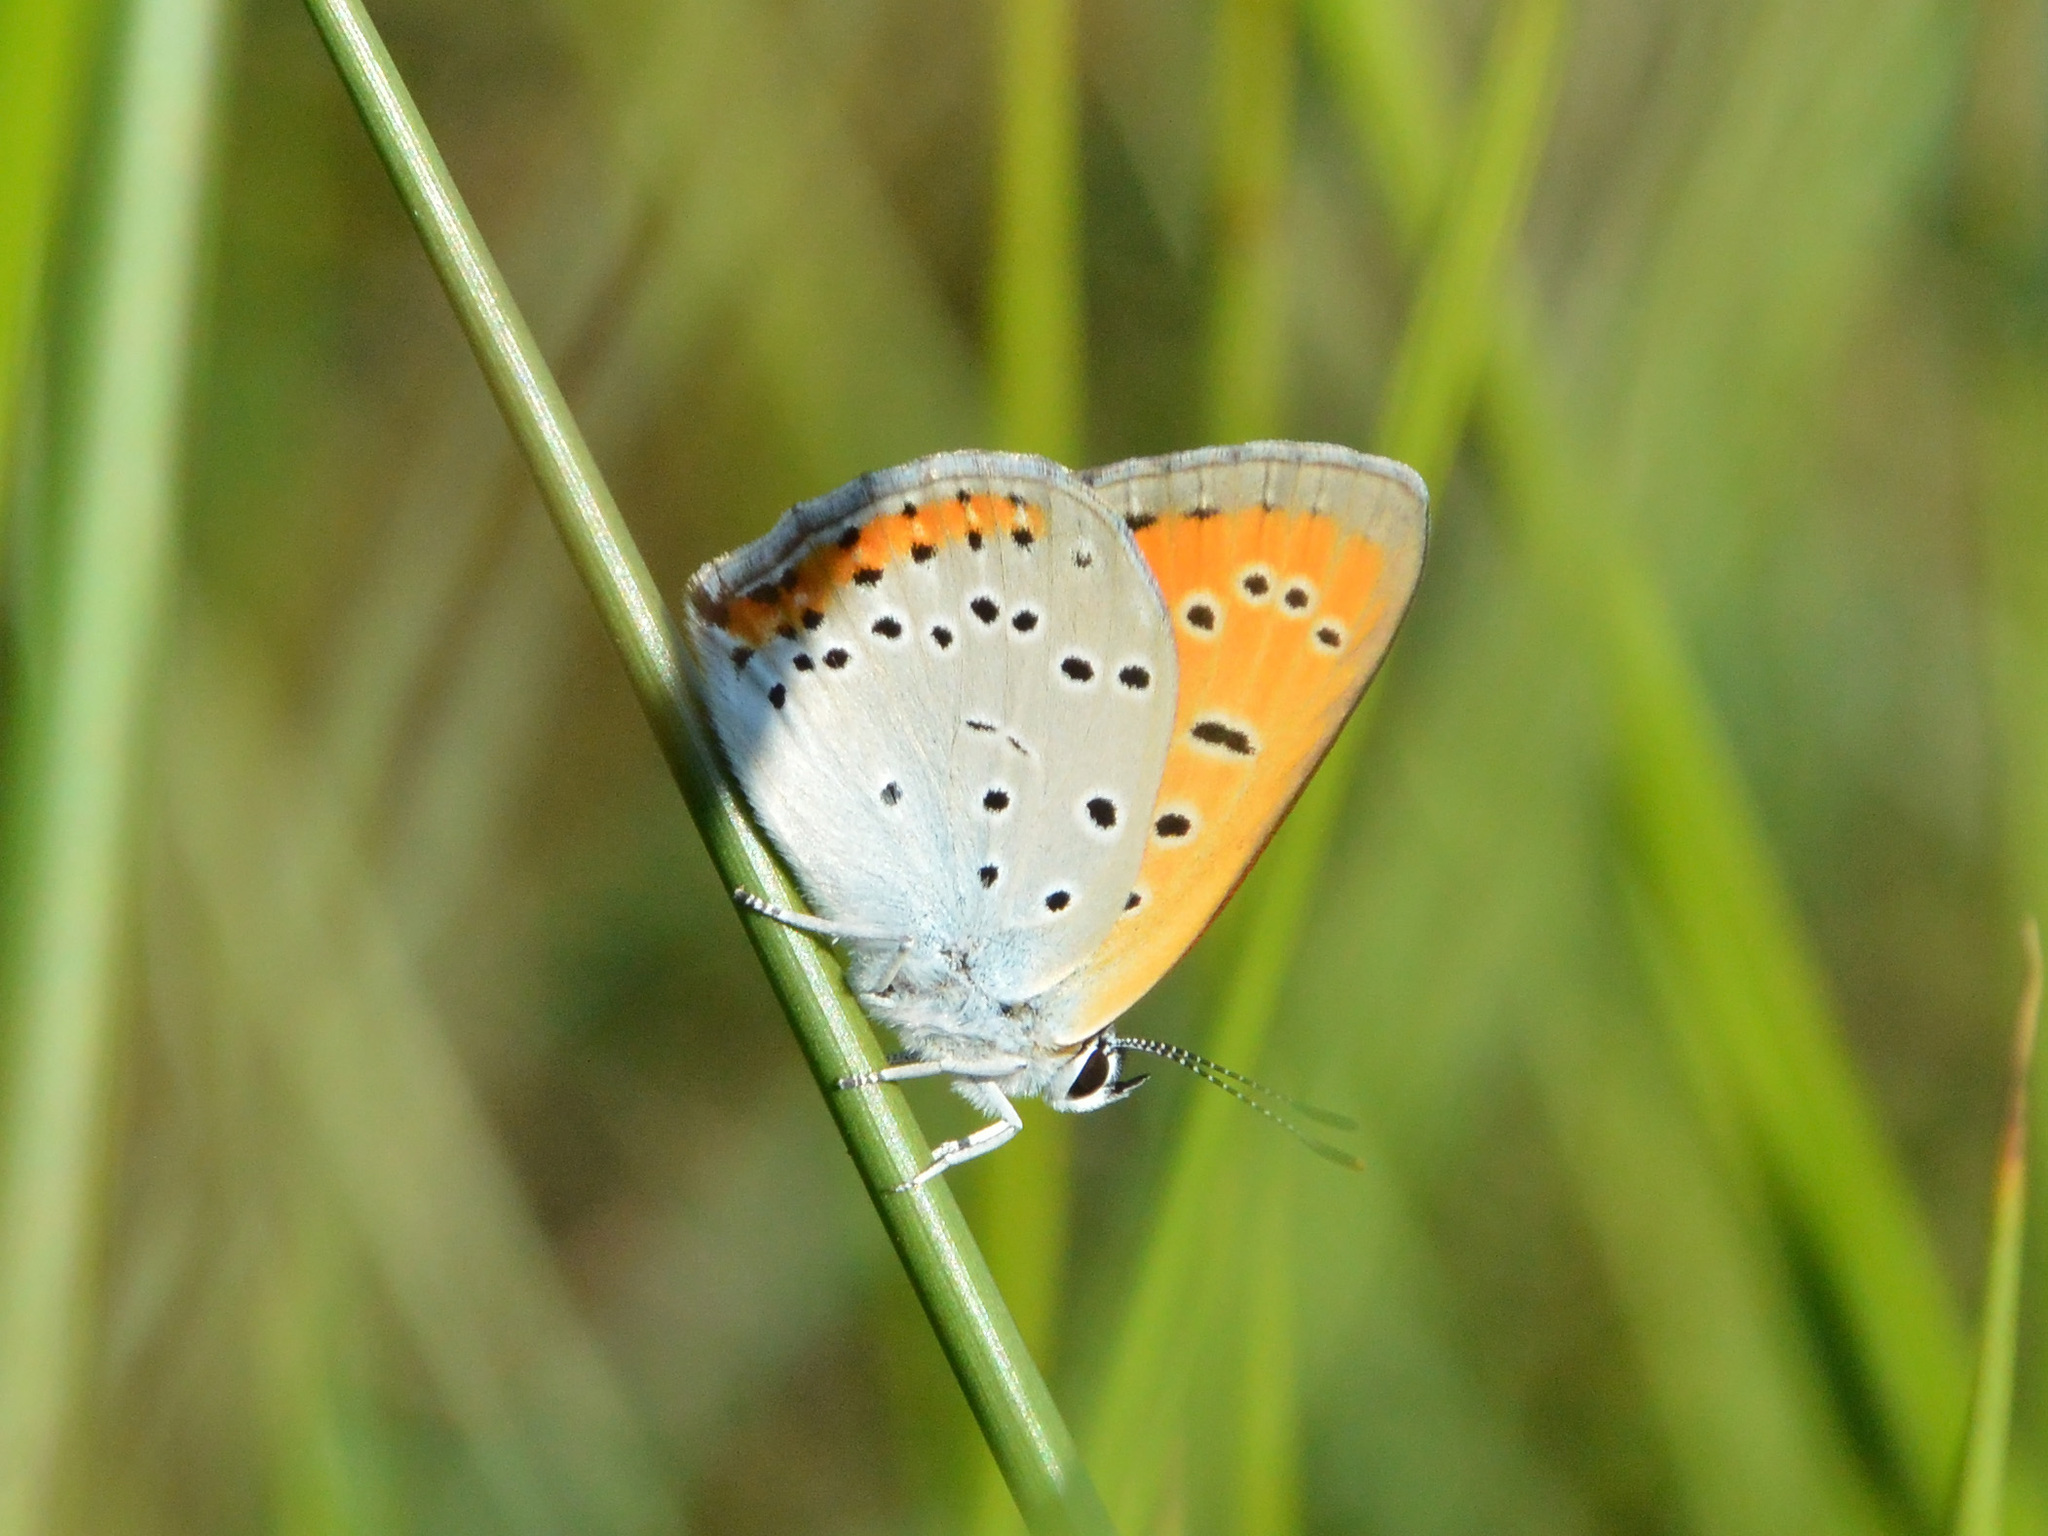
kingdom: Animalia
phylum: Arthropoda
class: Insecta
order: Lepidoptera
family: Lycaenidae
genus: Lycaena
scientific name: Lycaena dispar
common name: Large copper
